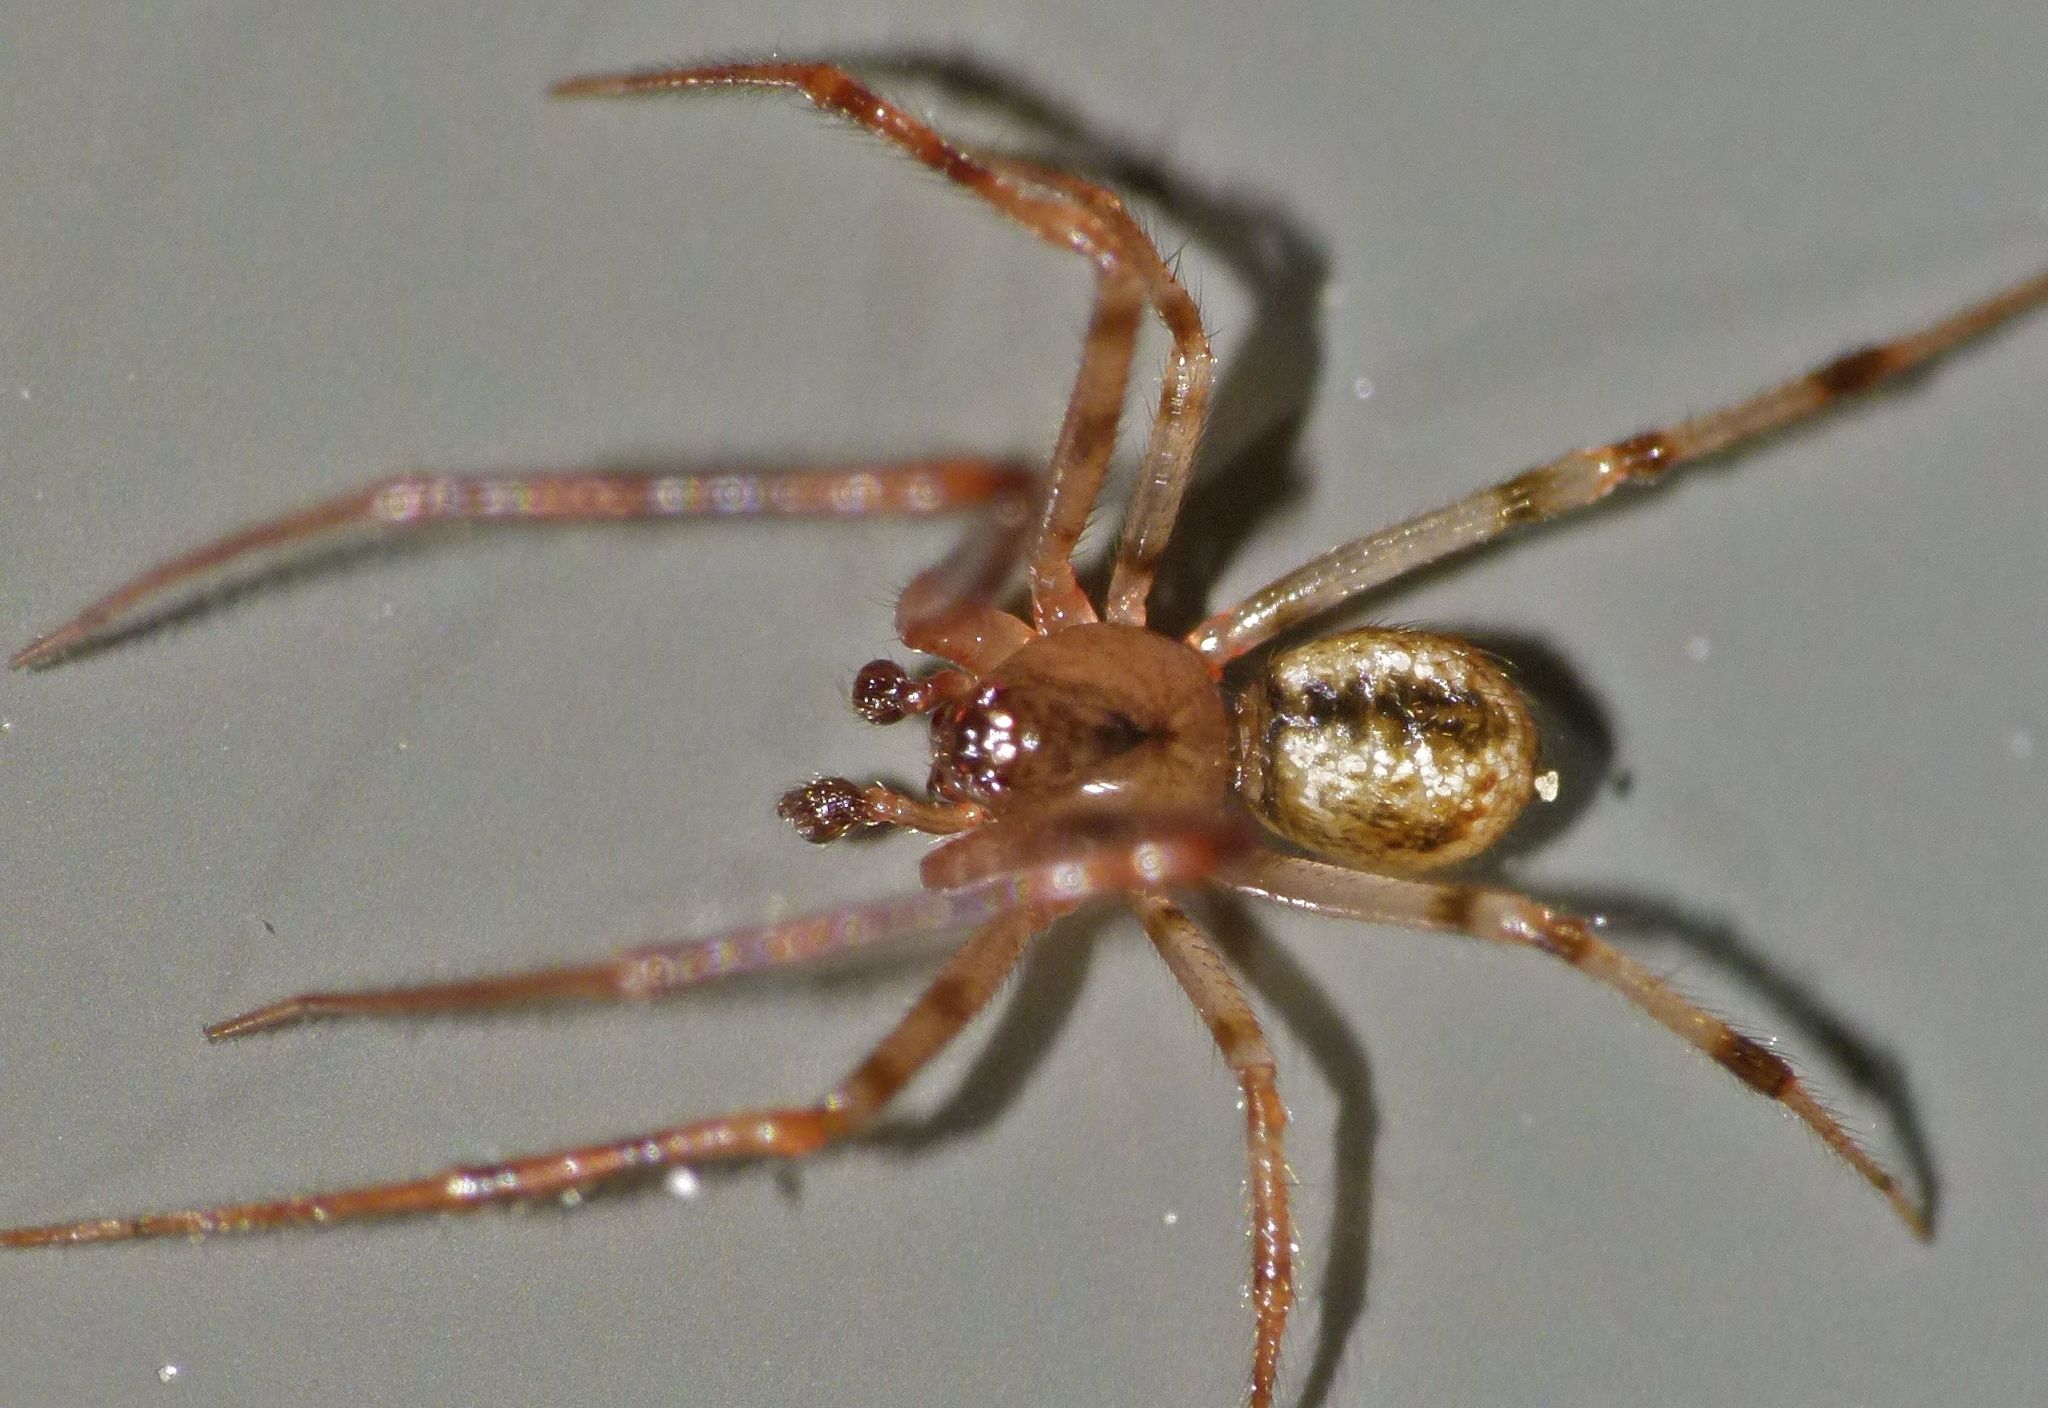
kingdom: Animalia
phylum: Arthropoda
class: Arachnida
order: Araneae
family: Theridiidae
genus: Cryptachaea
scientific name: Cryptachaea blattea
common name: Theridiid spider
